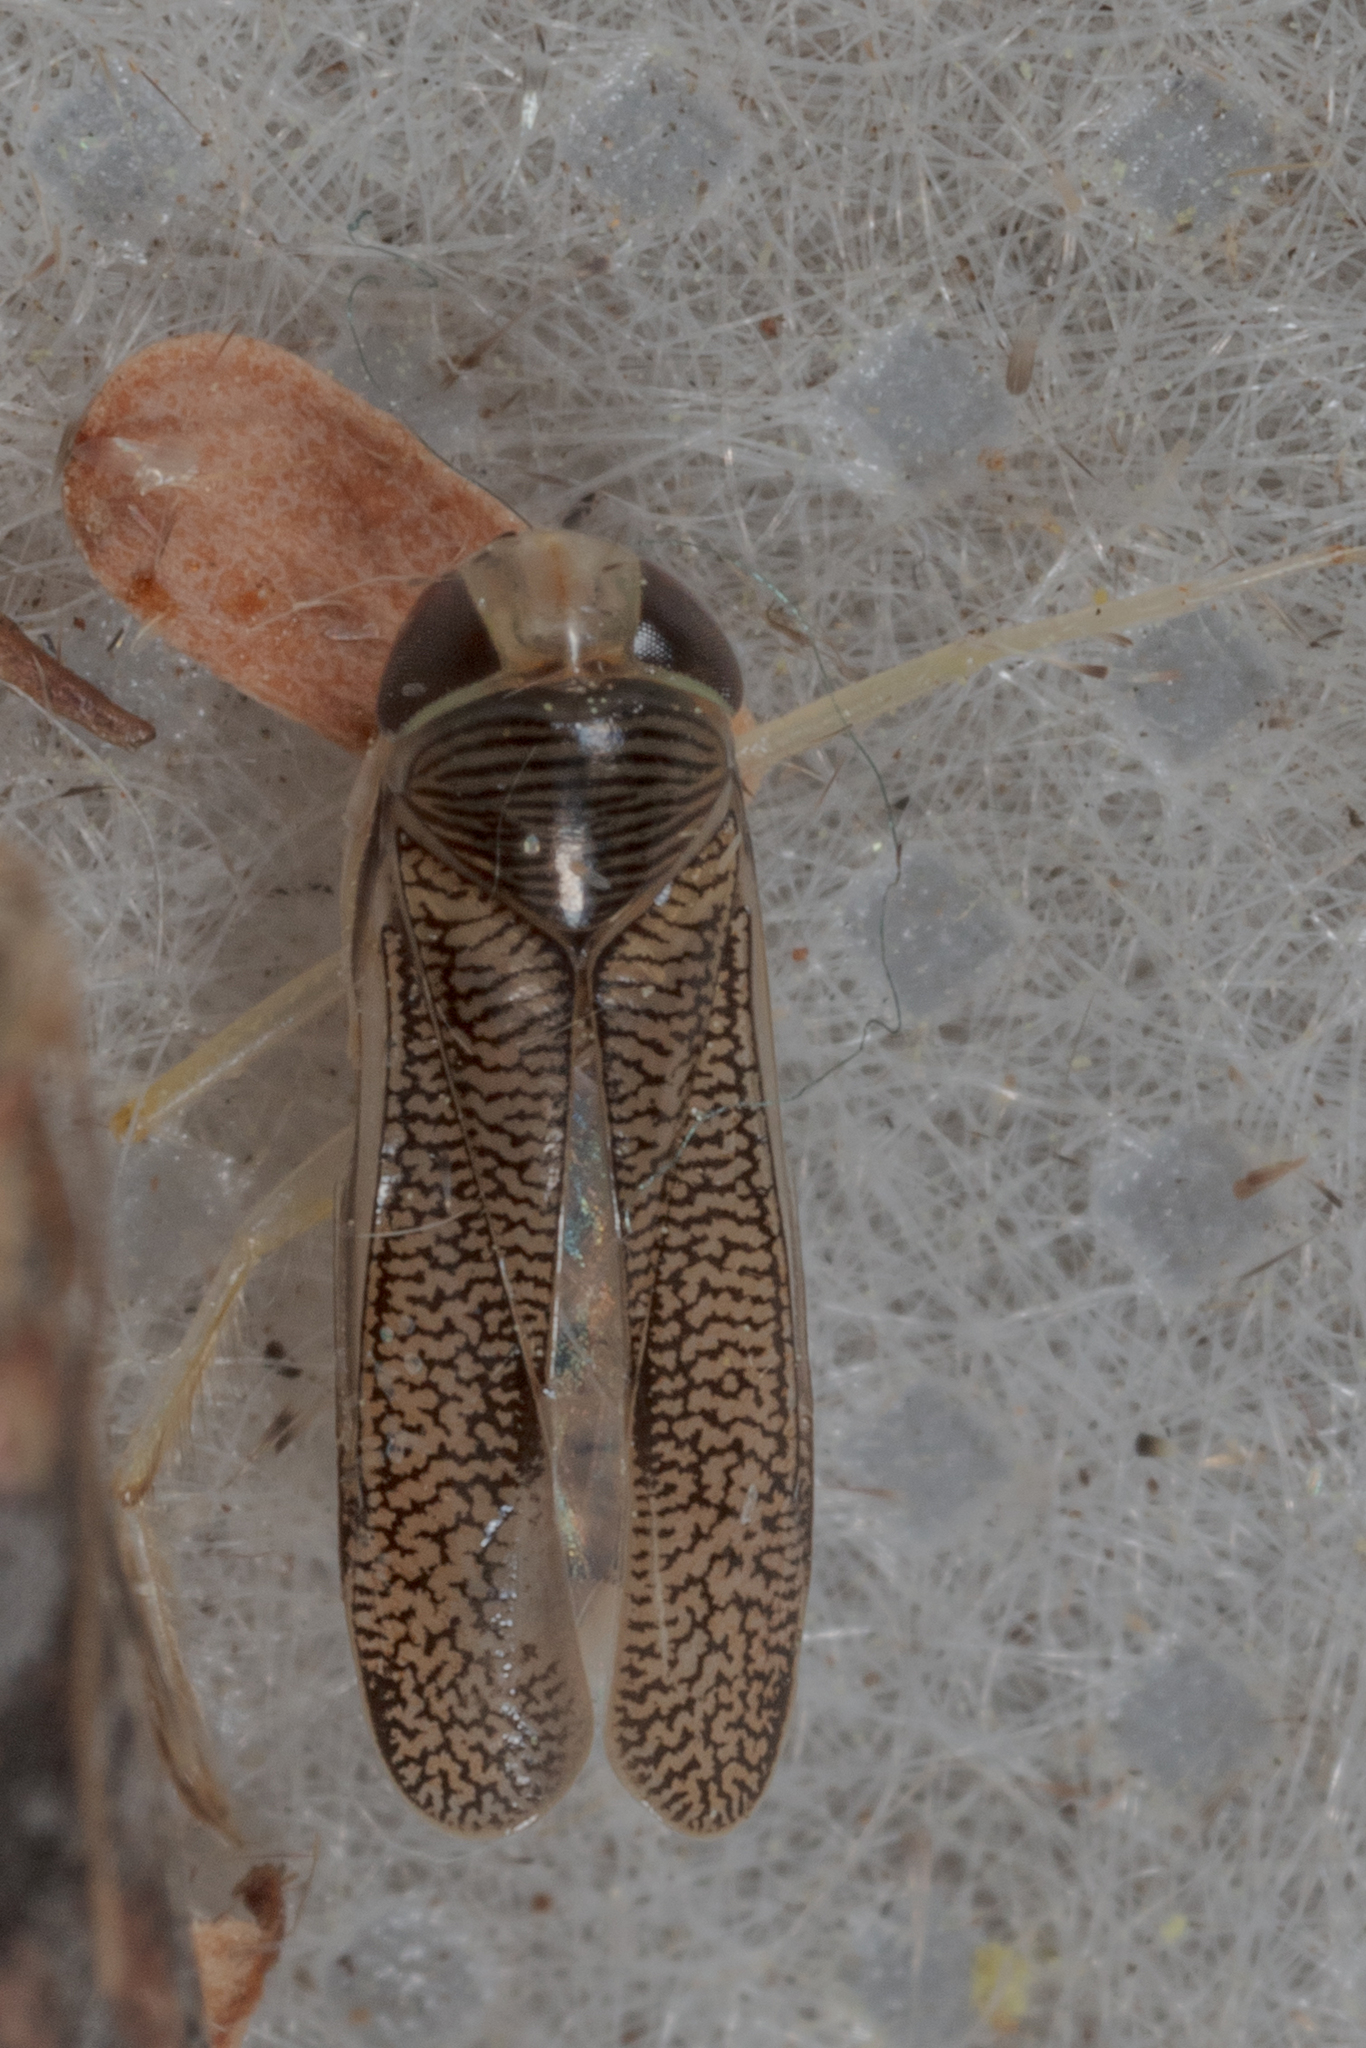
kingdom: Animalia
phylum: Arthropoda
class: Insecta
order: Hemiptera
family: Corixidae
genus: Trichocorixa
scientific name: Trichocorixa
